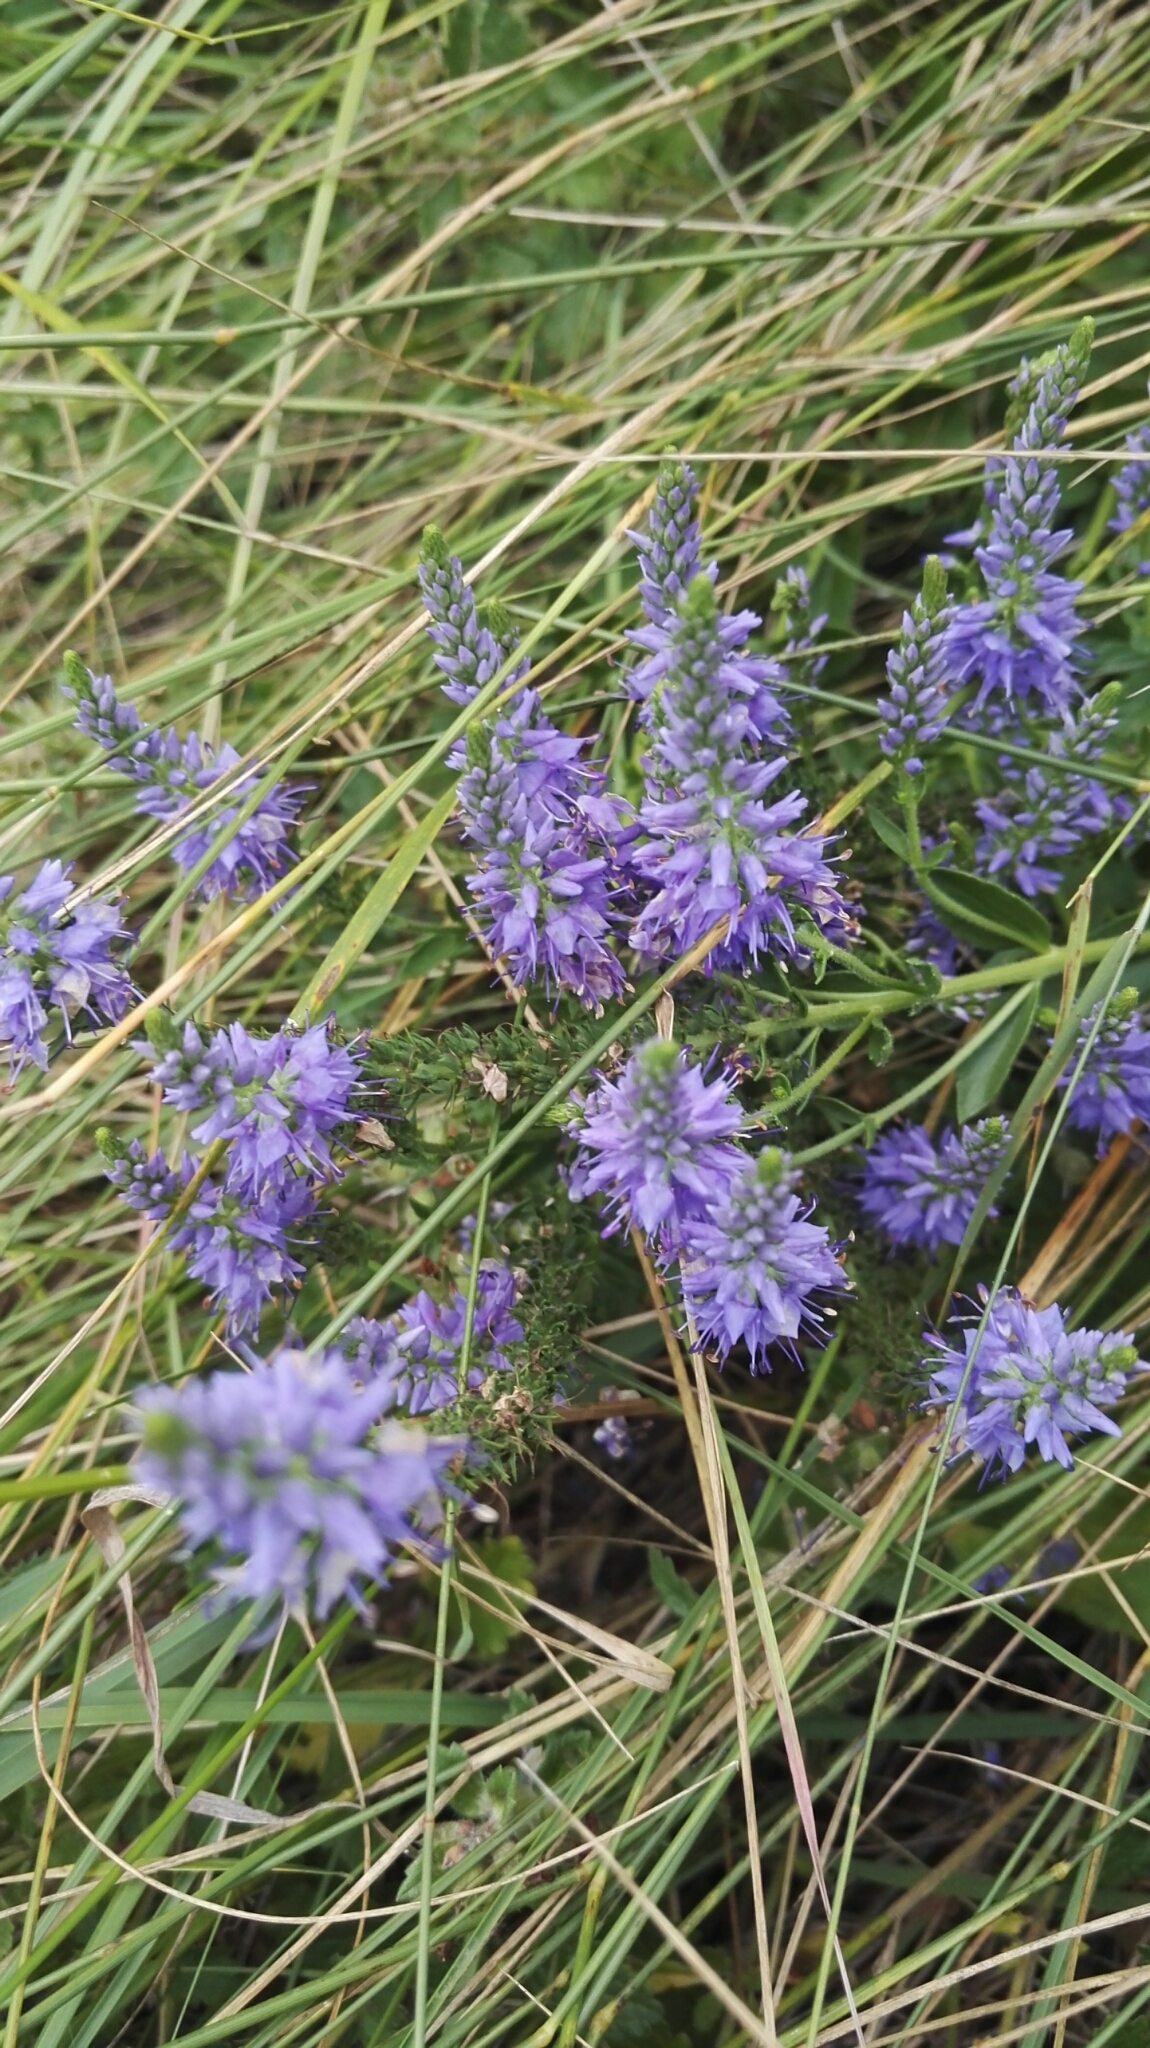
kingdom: Plantae
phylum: Tracheophyta
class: Magnoliopsida
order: Lamiales
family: Plantaginaceae
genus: Veronica
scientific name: Veronica barrelieri
